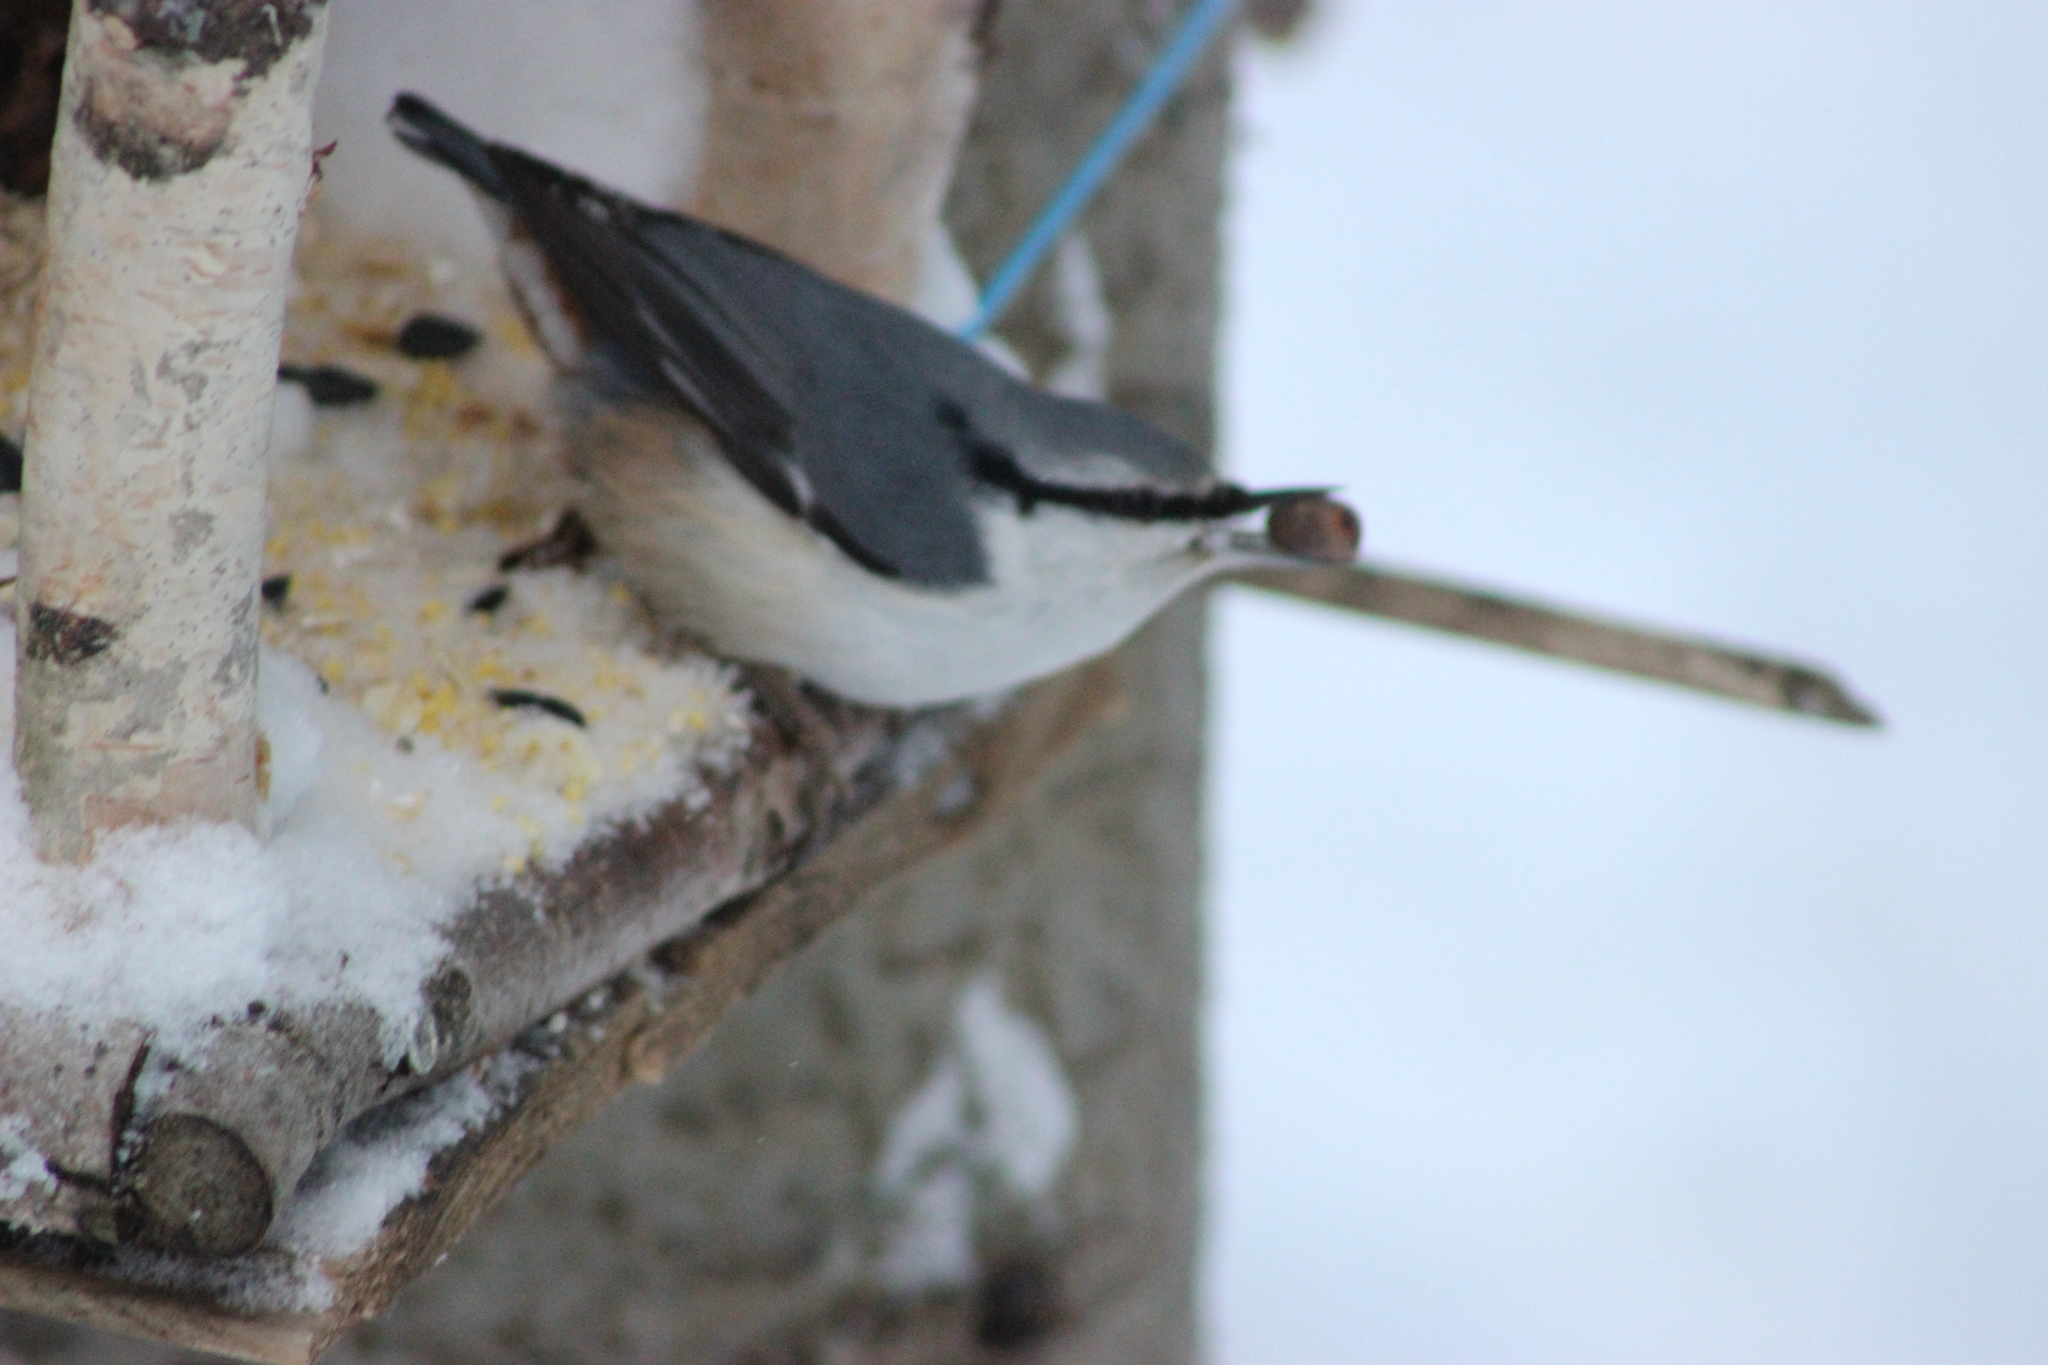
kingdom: Animalia
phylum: Chordata
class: Aves
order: Passeriformes
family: Sittidae
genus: Sitta
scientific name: Sitta europaea
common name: Eurasian nuthatch
